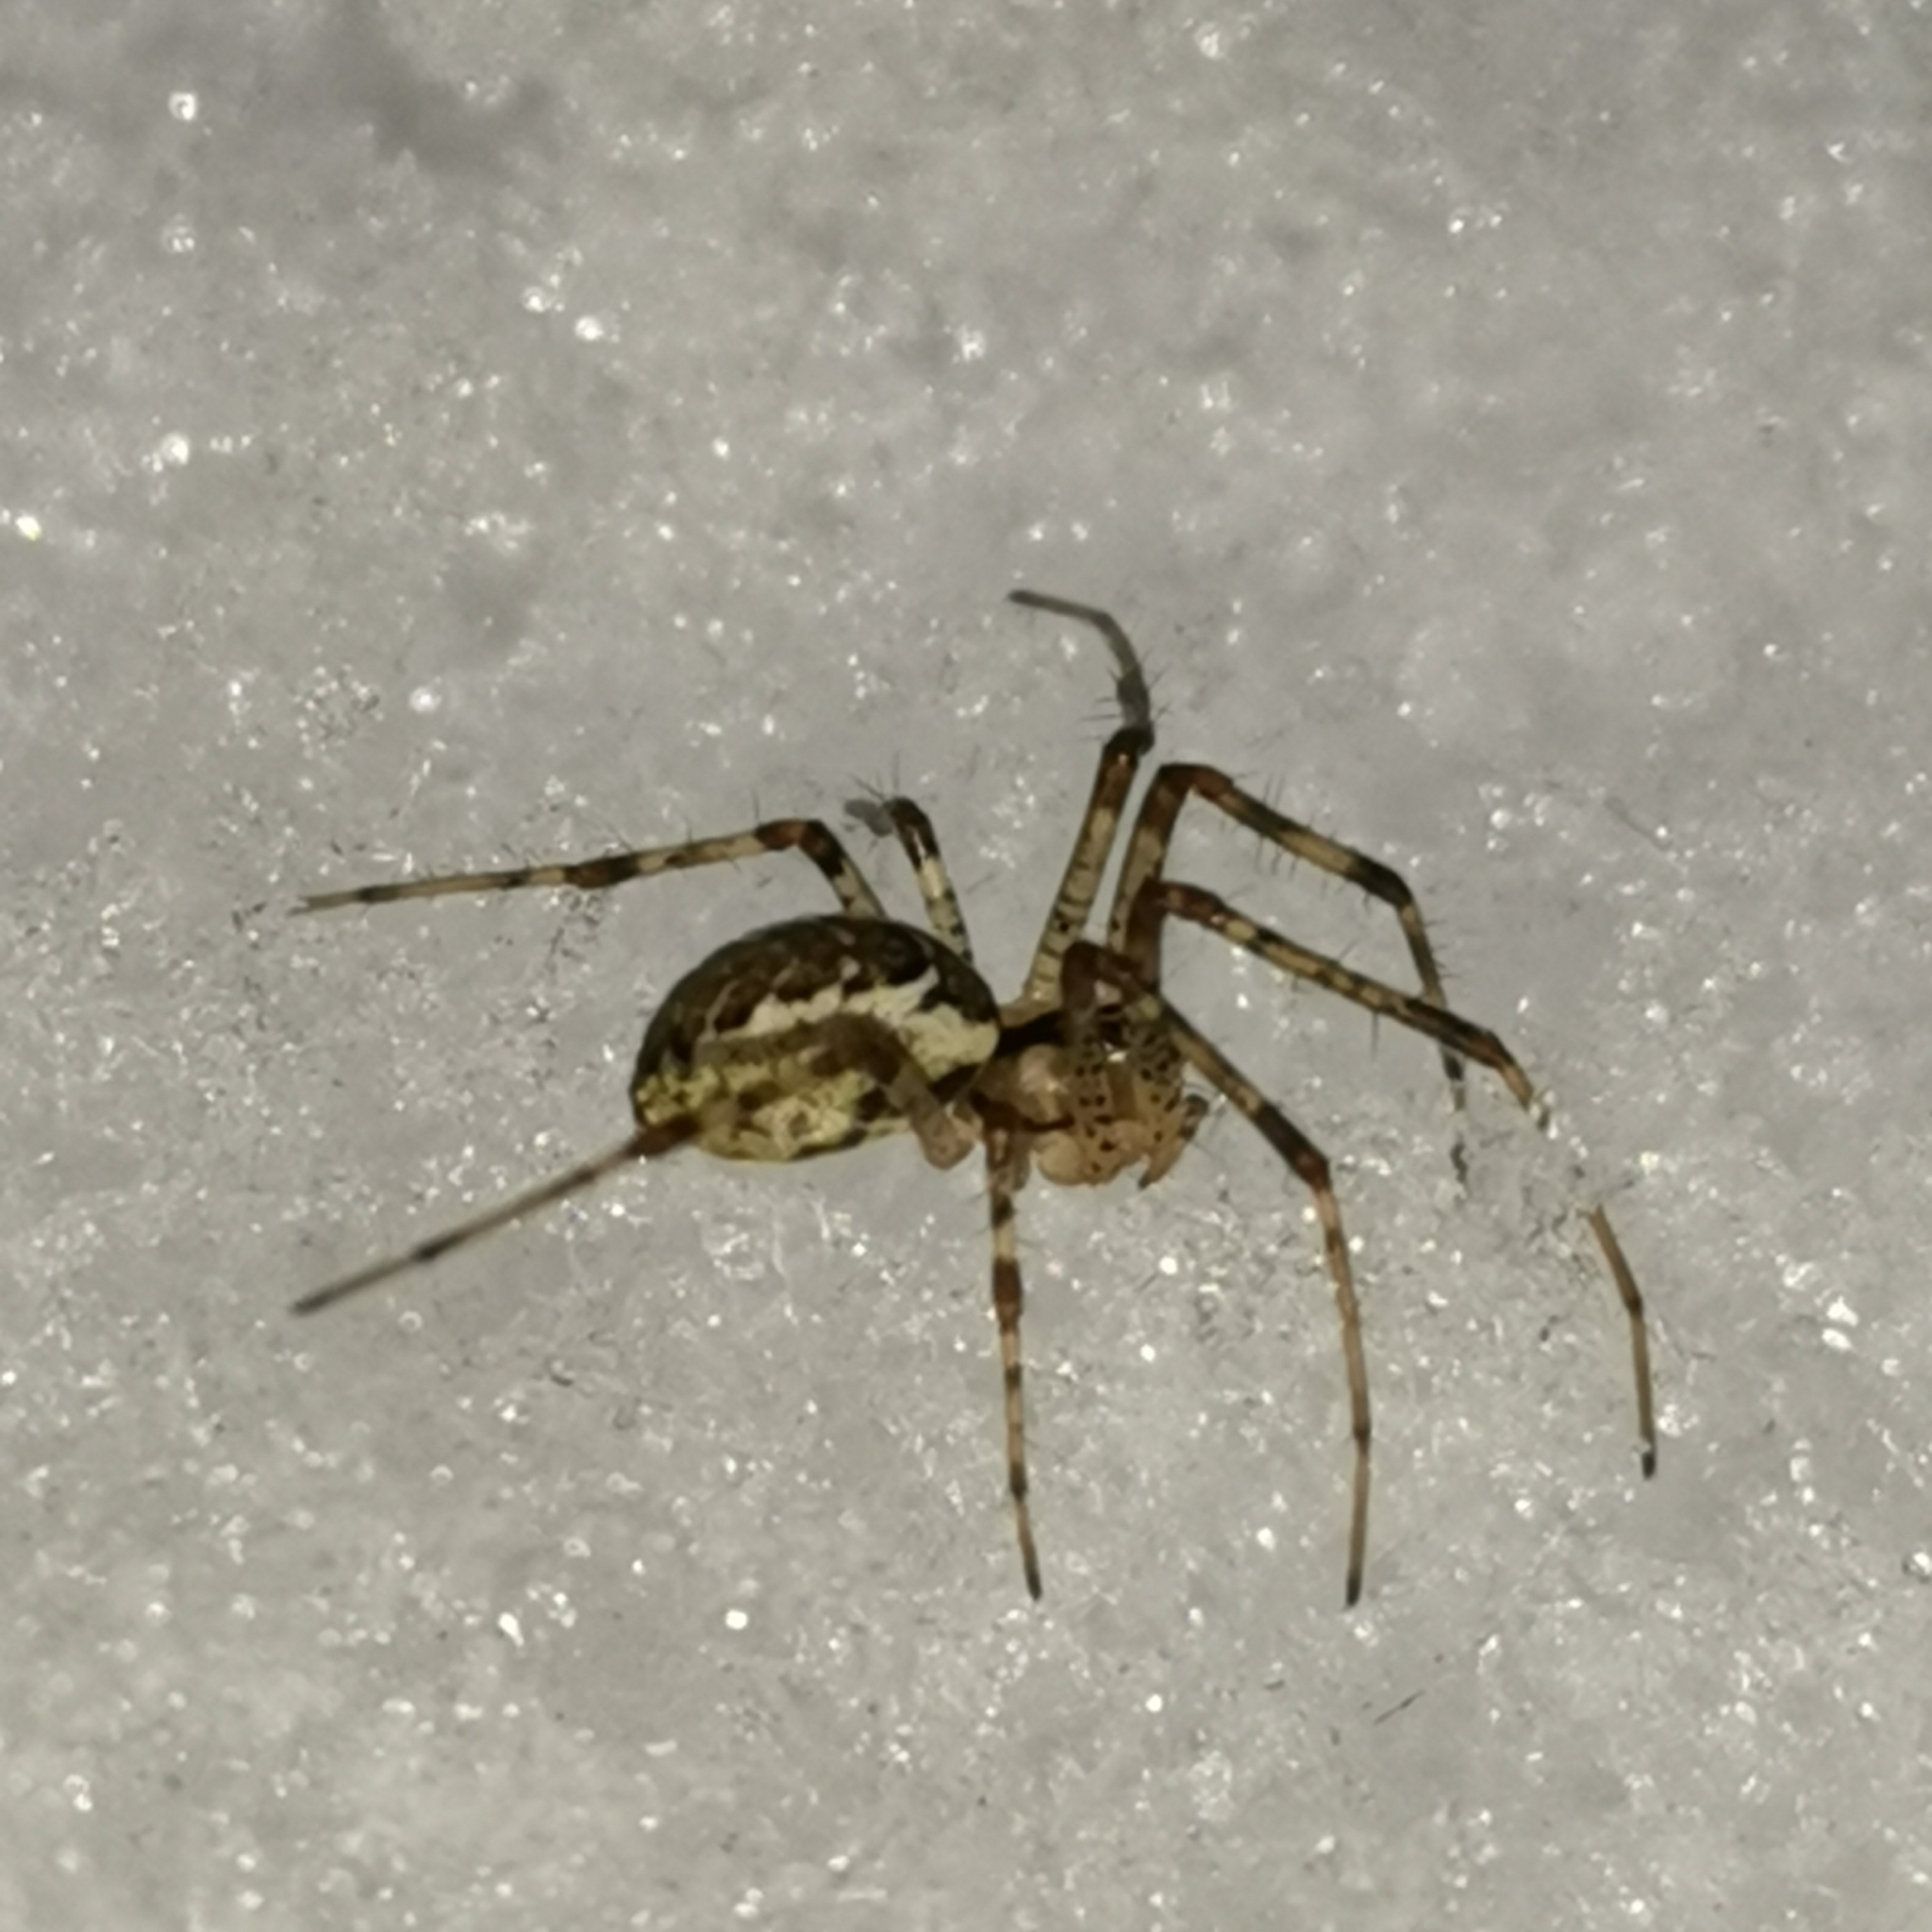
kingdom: Animalia
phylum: Arthropoda
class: Arachnida
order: Araneae
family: Linyphiidae
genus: Pityohyphantes
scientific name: Pityohyphantes phrygianus
